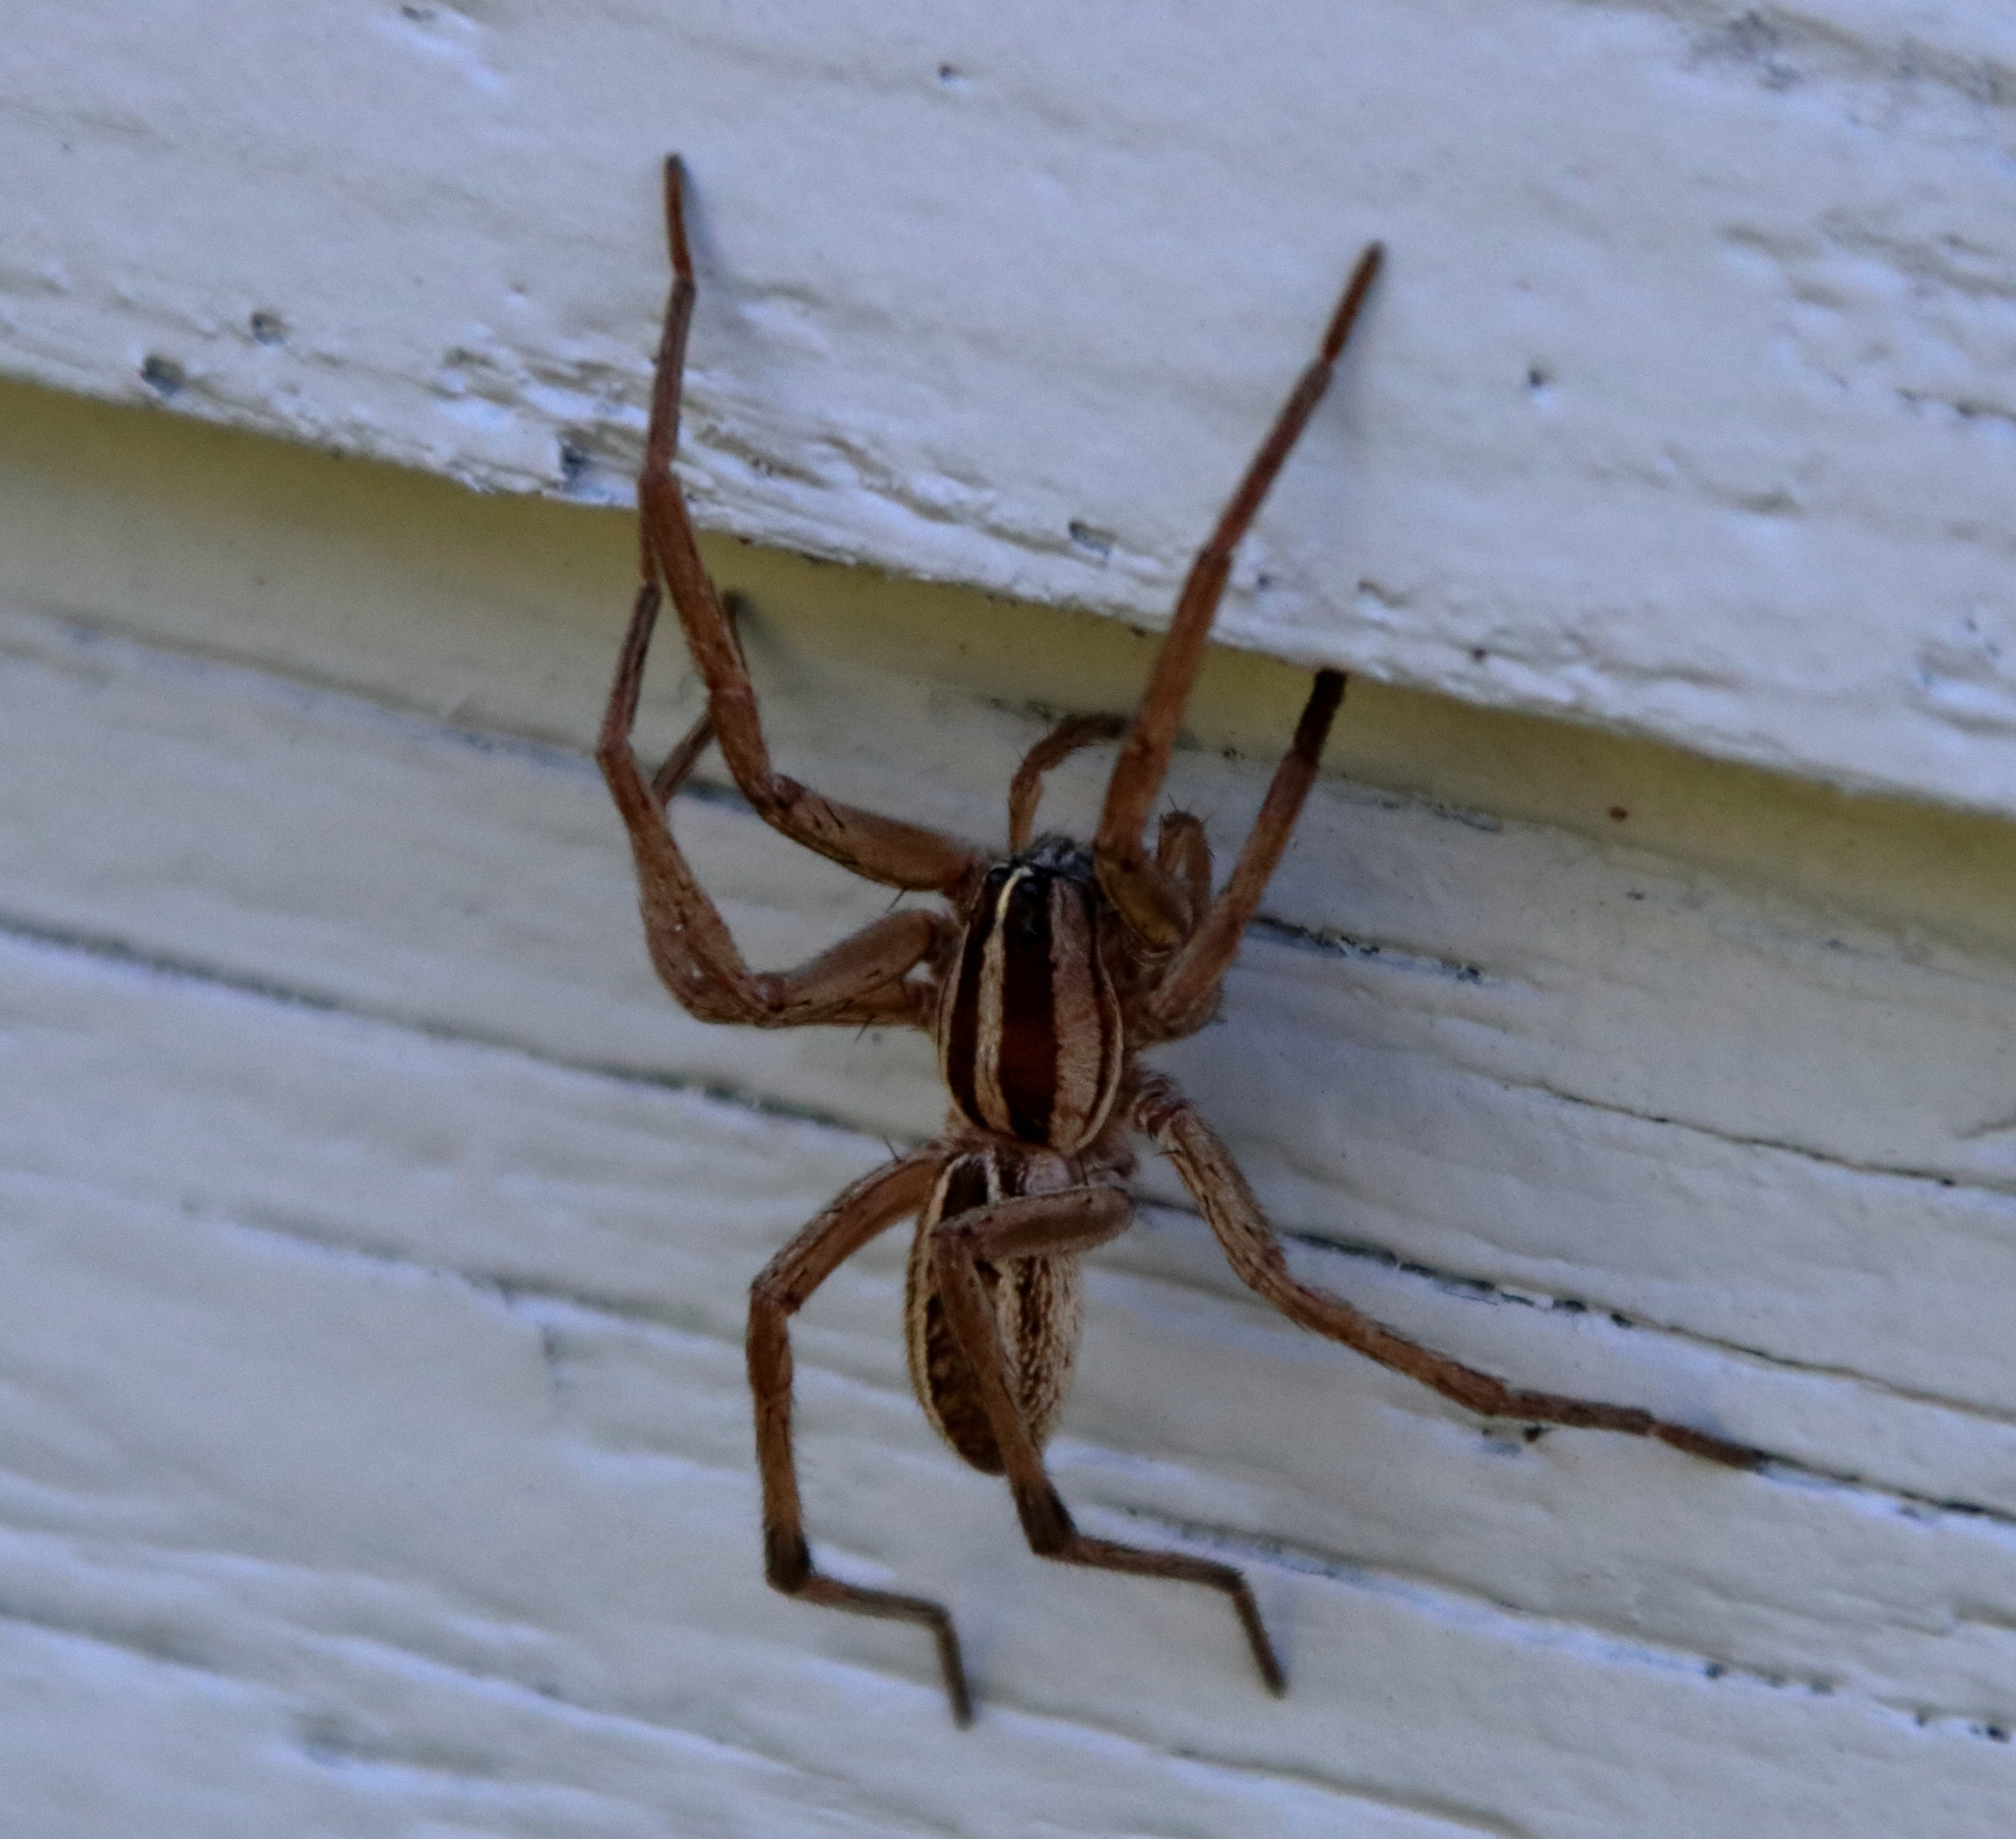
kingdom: Animalia
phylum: Arthropoda
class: Arachnida
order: Araneae
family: Lycosidae
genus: Rabidosa
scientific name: Rabidosa rabida
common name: Rabid wolf spider
